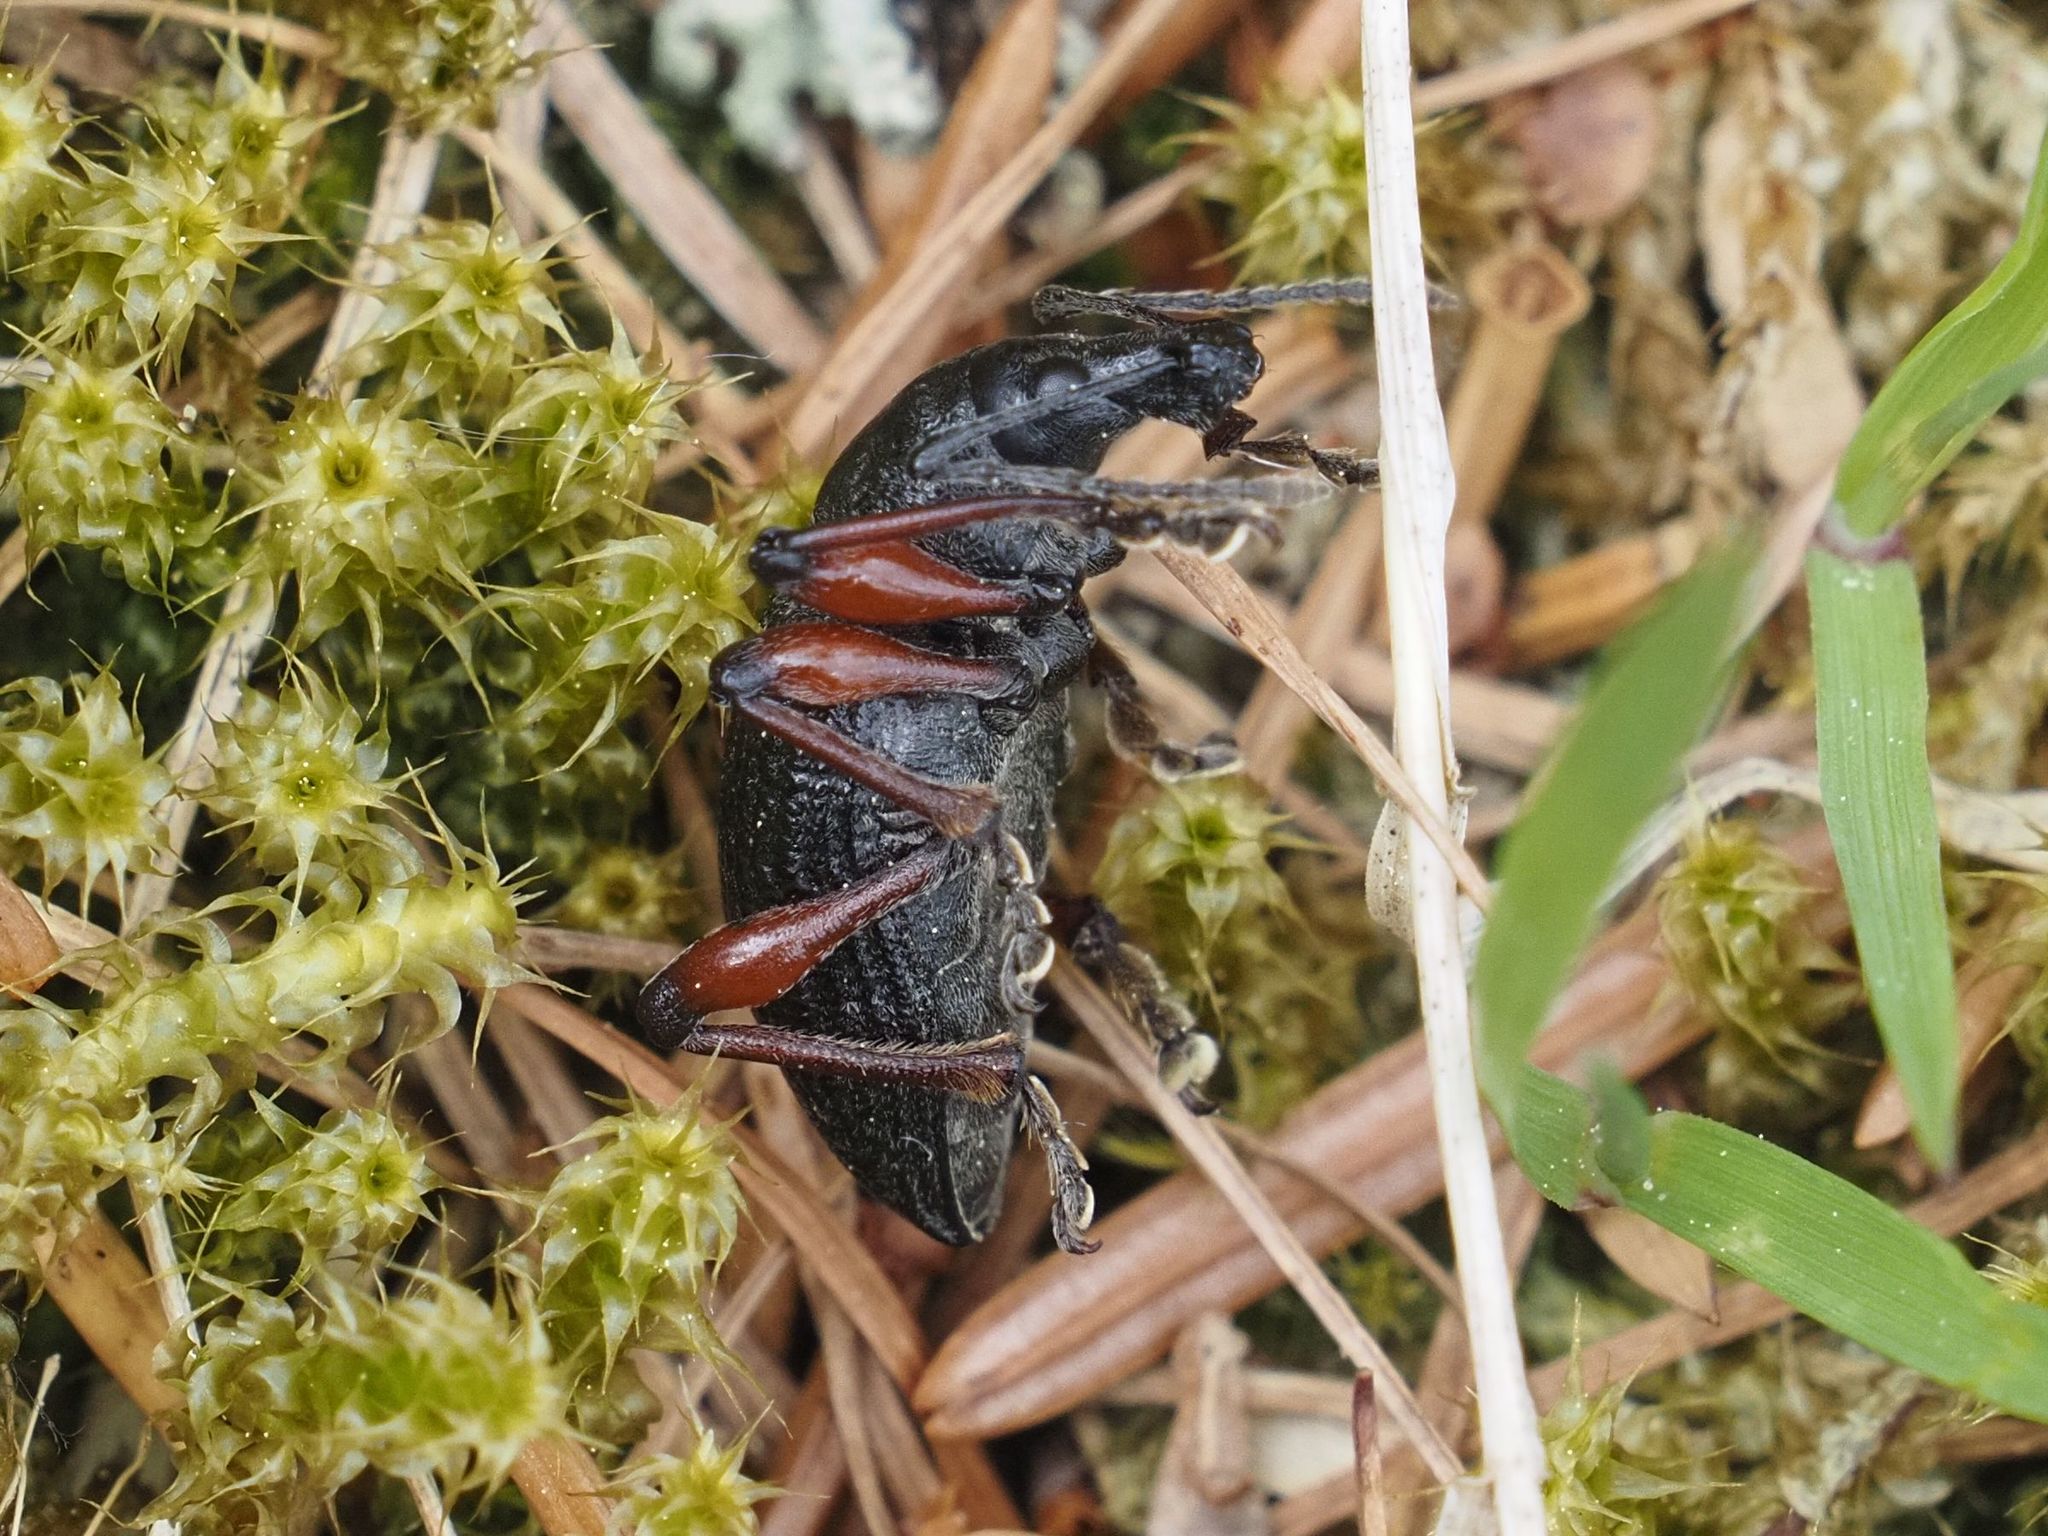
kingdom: Animalia
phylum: Arthropoda
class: Insecta
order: Coleoptera
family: Curculionidae
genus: Otiorhynchus
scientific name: Otiorhynchus coecus
